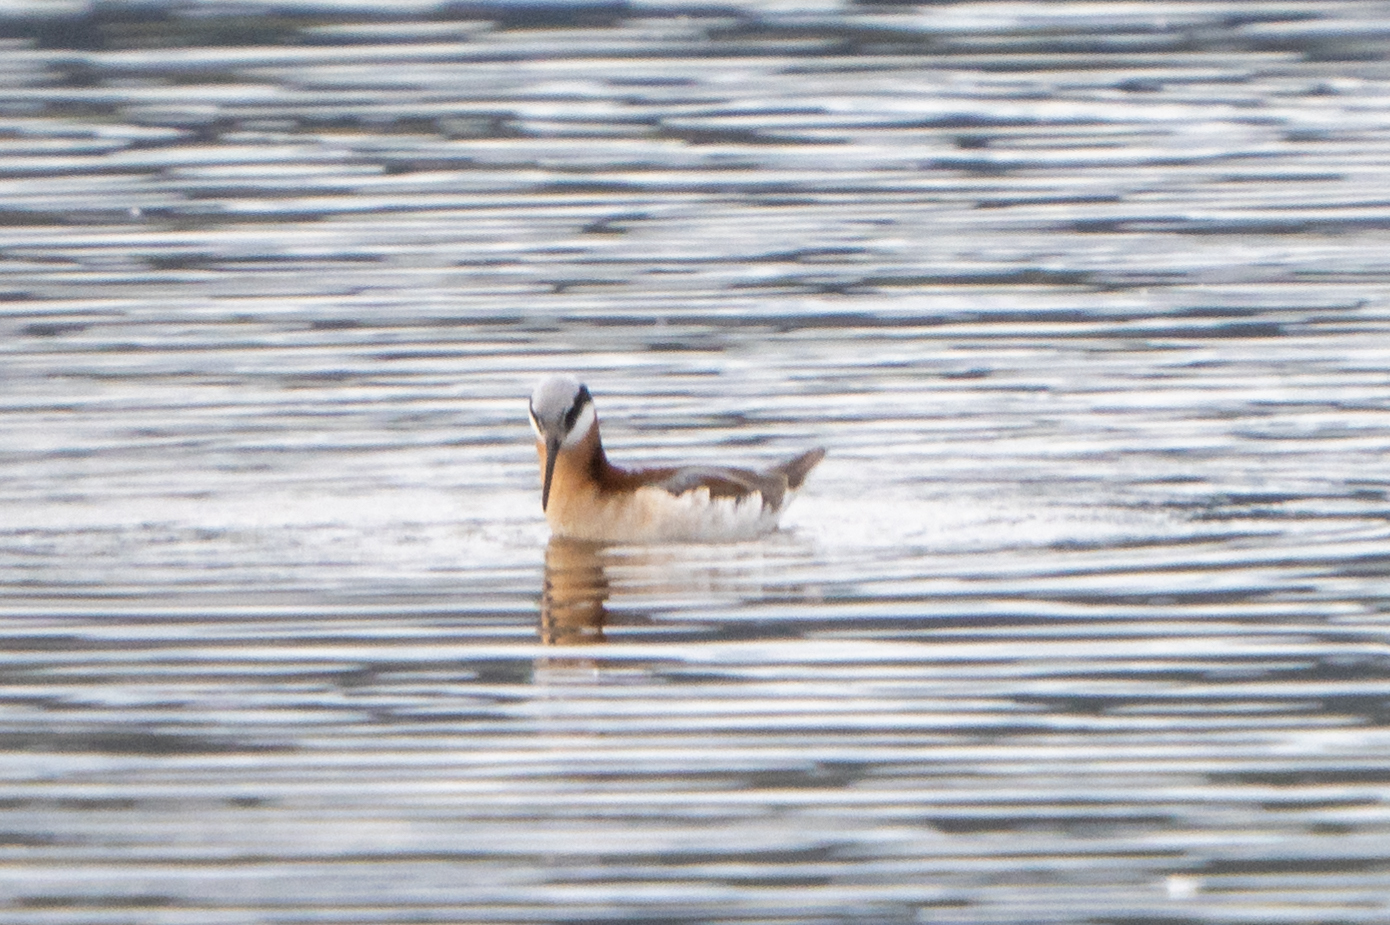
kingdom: Animalia
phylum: Chordata
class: Aves
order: Charadriiformes
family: Scolopacidae
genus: Phalaropus
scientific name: Phalaropus tricolor
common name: Wilson's phalarope
